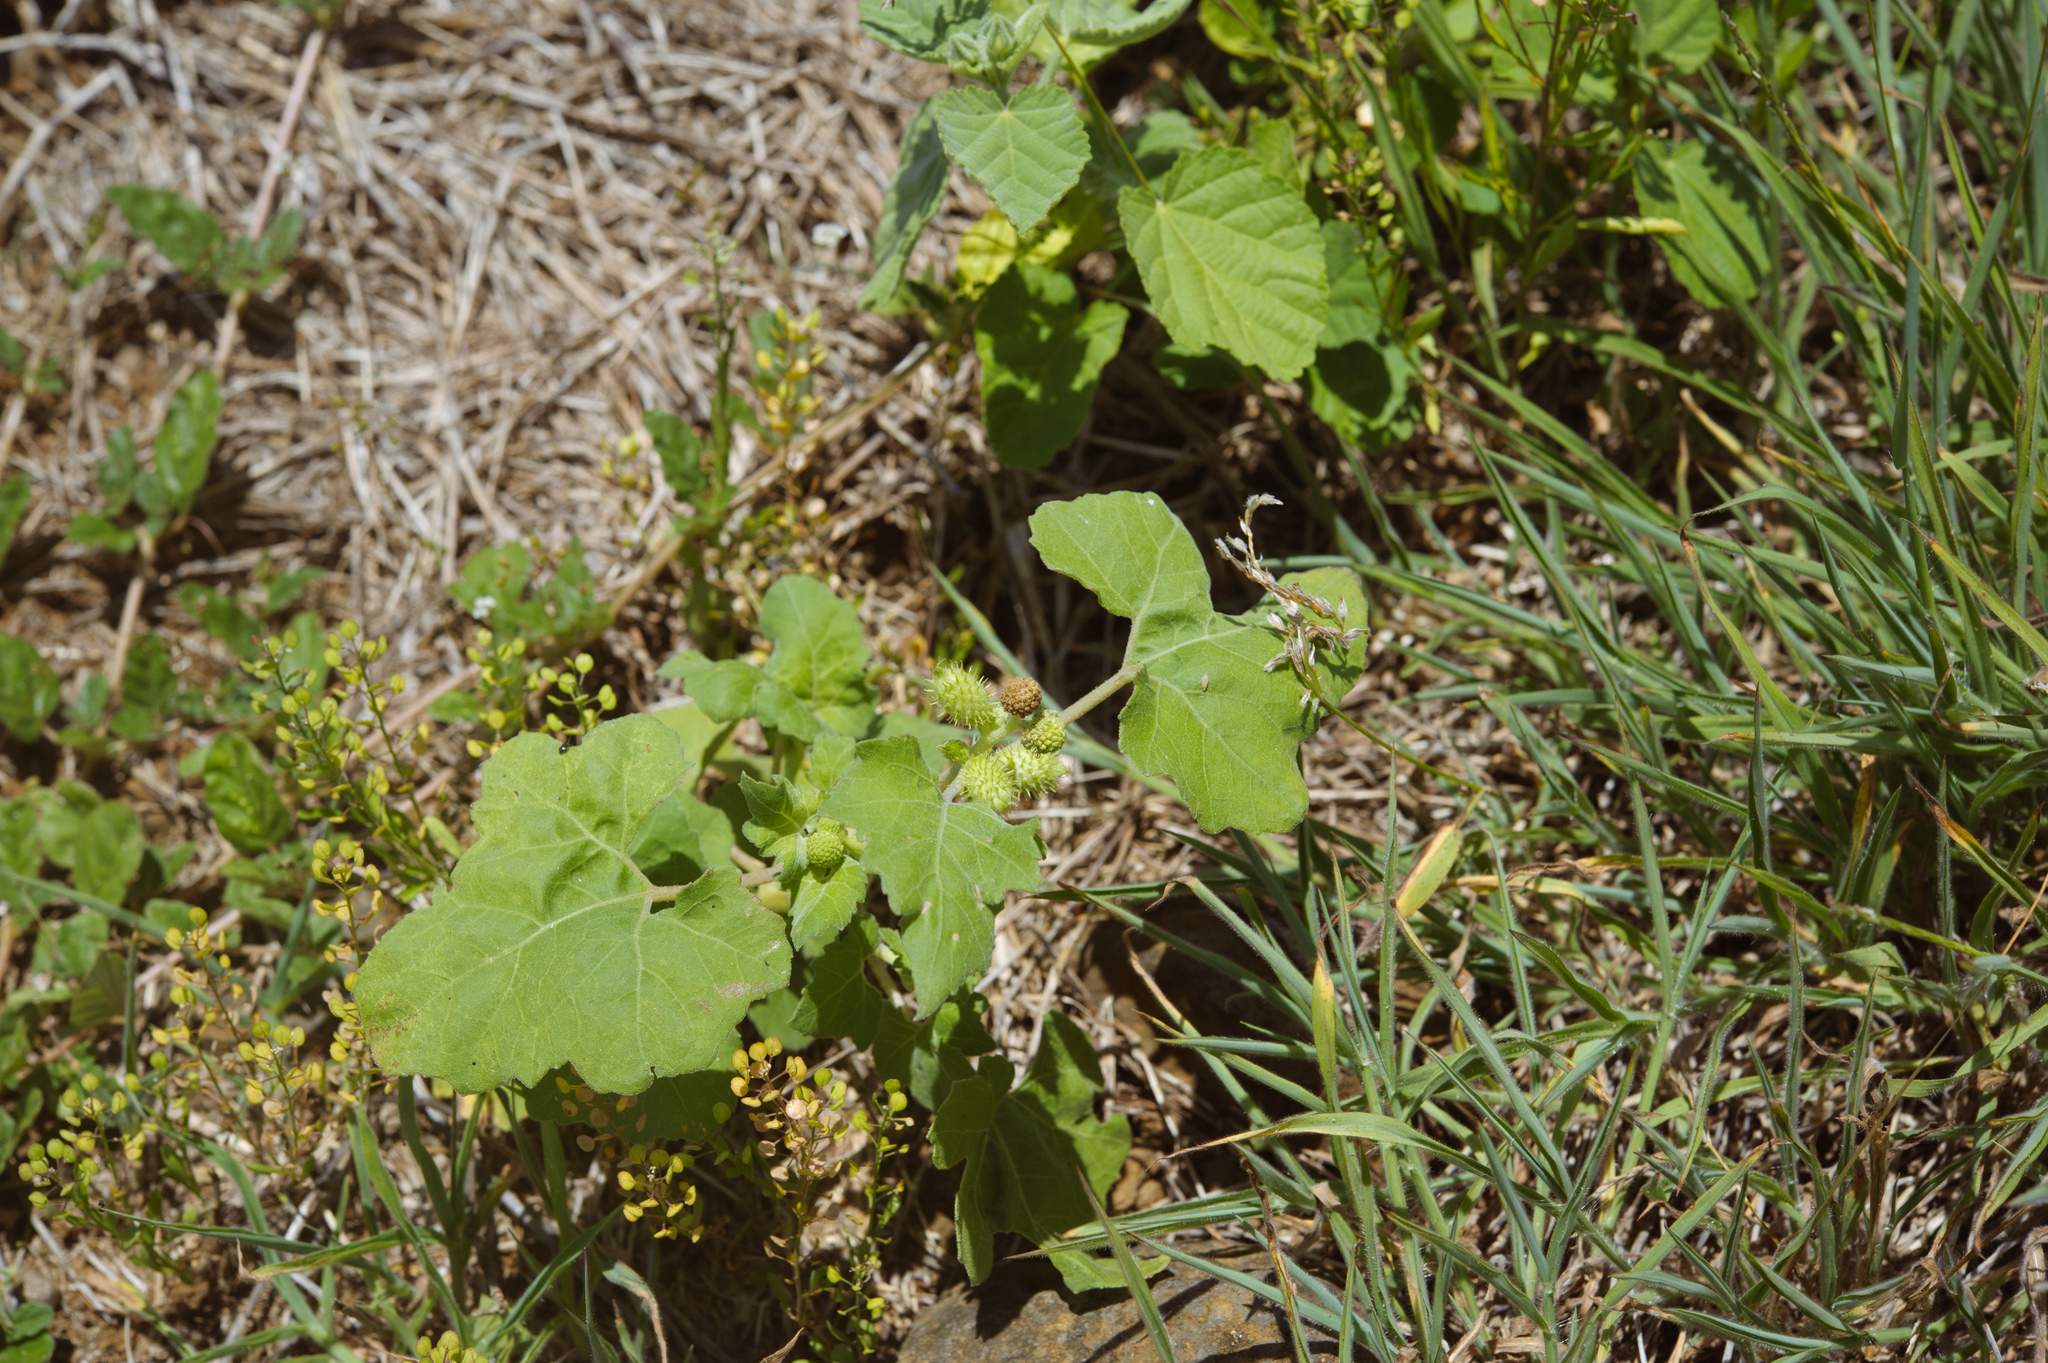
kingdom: Plantae
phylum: Tracheophyta
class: Magnoliopsida
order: Asterales
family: Asteraceae
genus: Xanthium
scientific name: Xanthium strumarium
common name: Rough cocklebur
